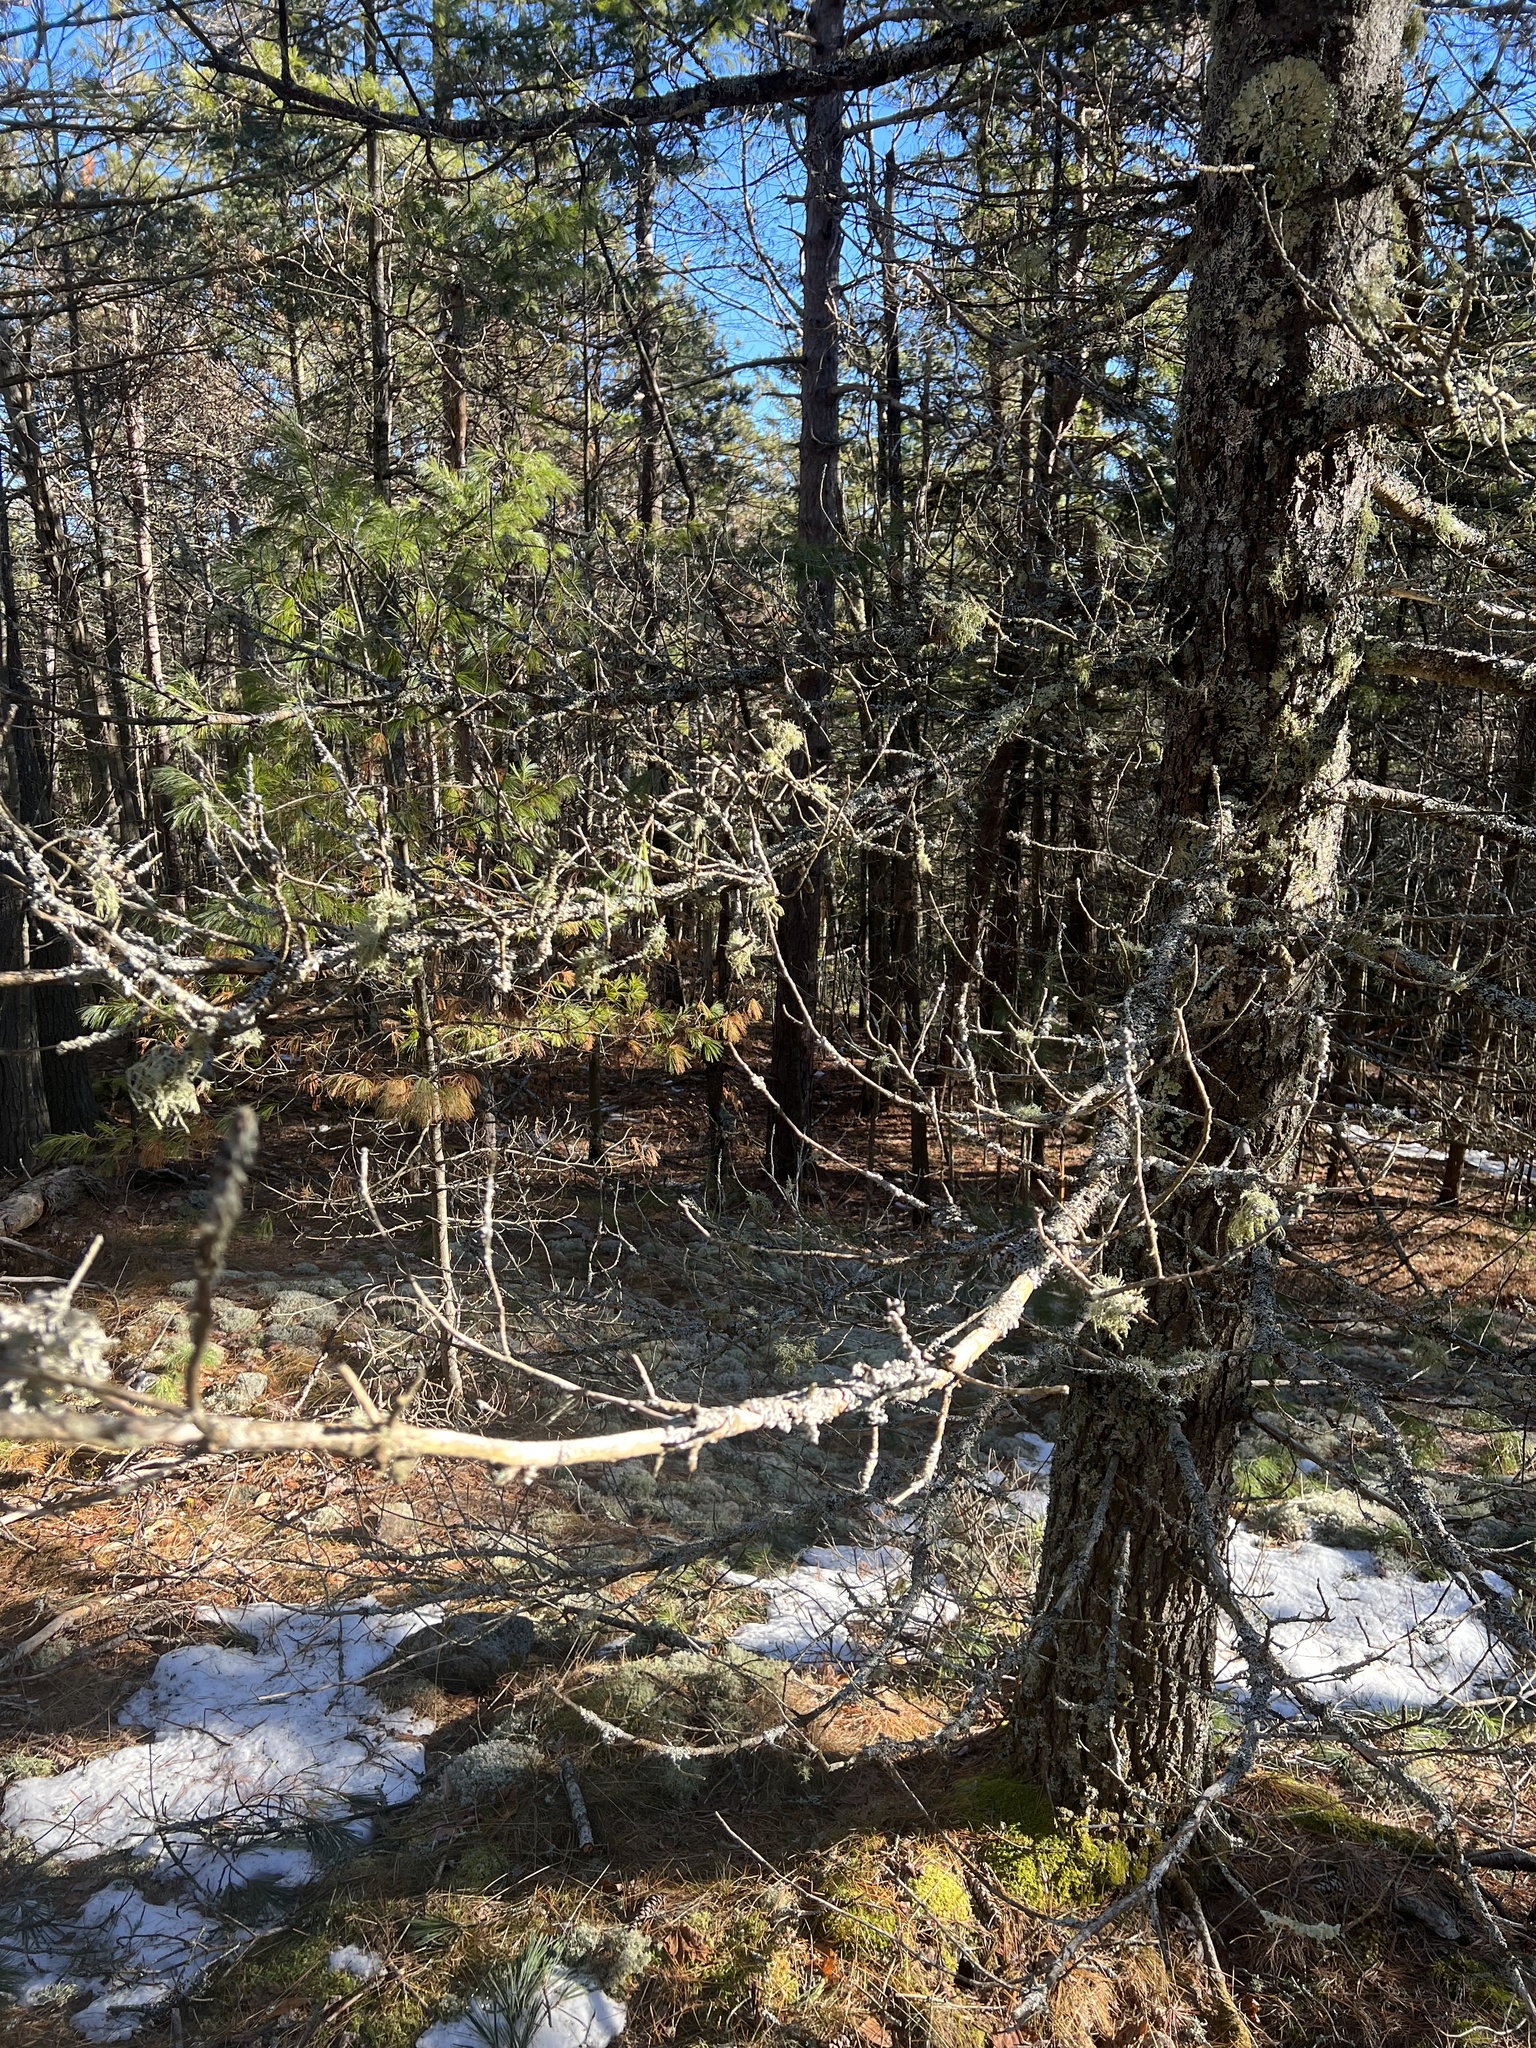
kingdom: Fungi
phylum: Ascomycota
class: Lecanoromycetes
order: Lecanorales
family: Parmeliaceae
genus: Platismatia
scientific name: Platismatia tuckermanii
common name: Crumpled rag lichen
